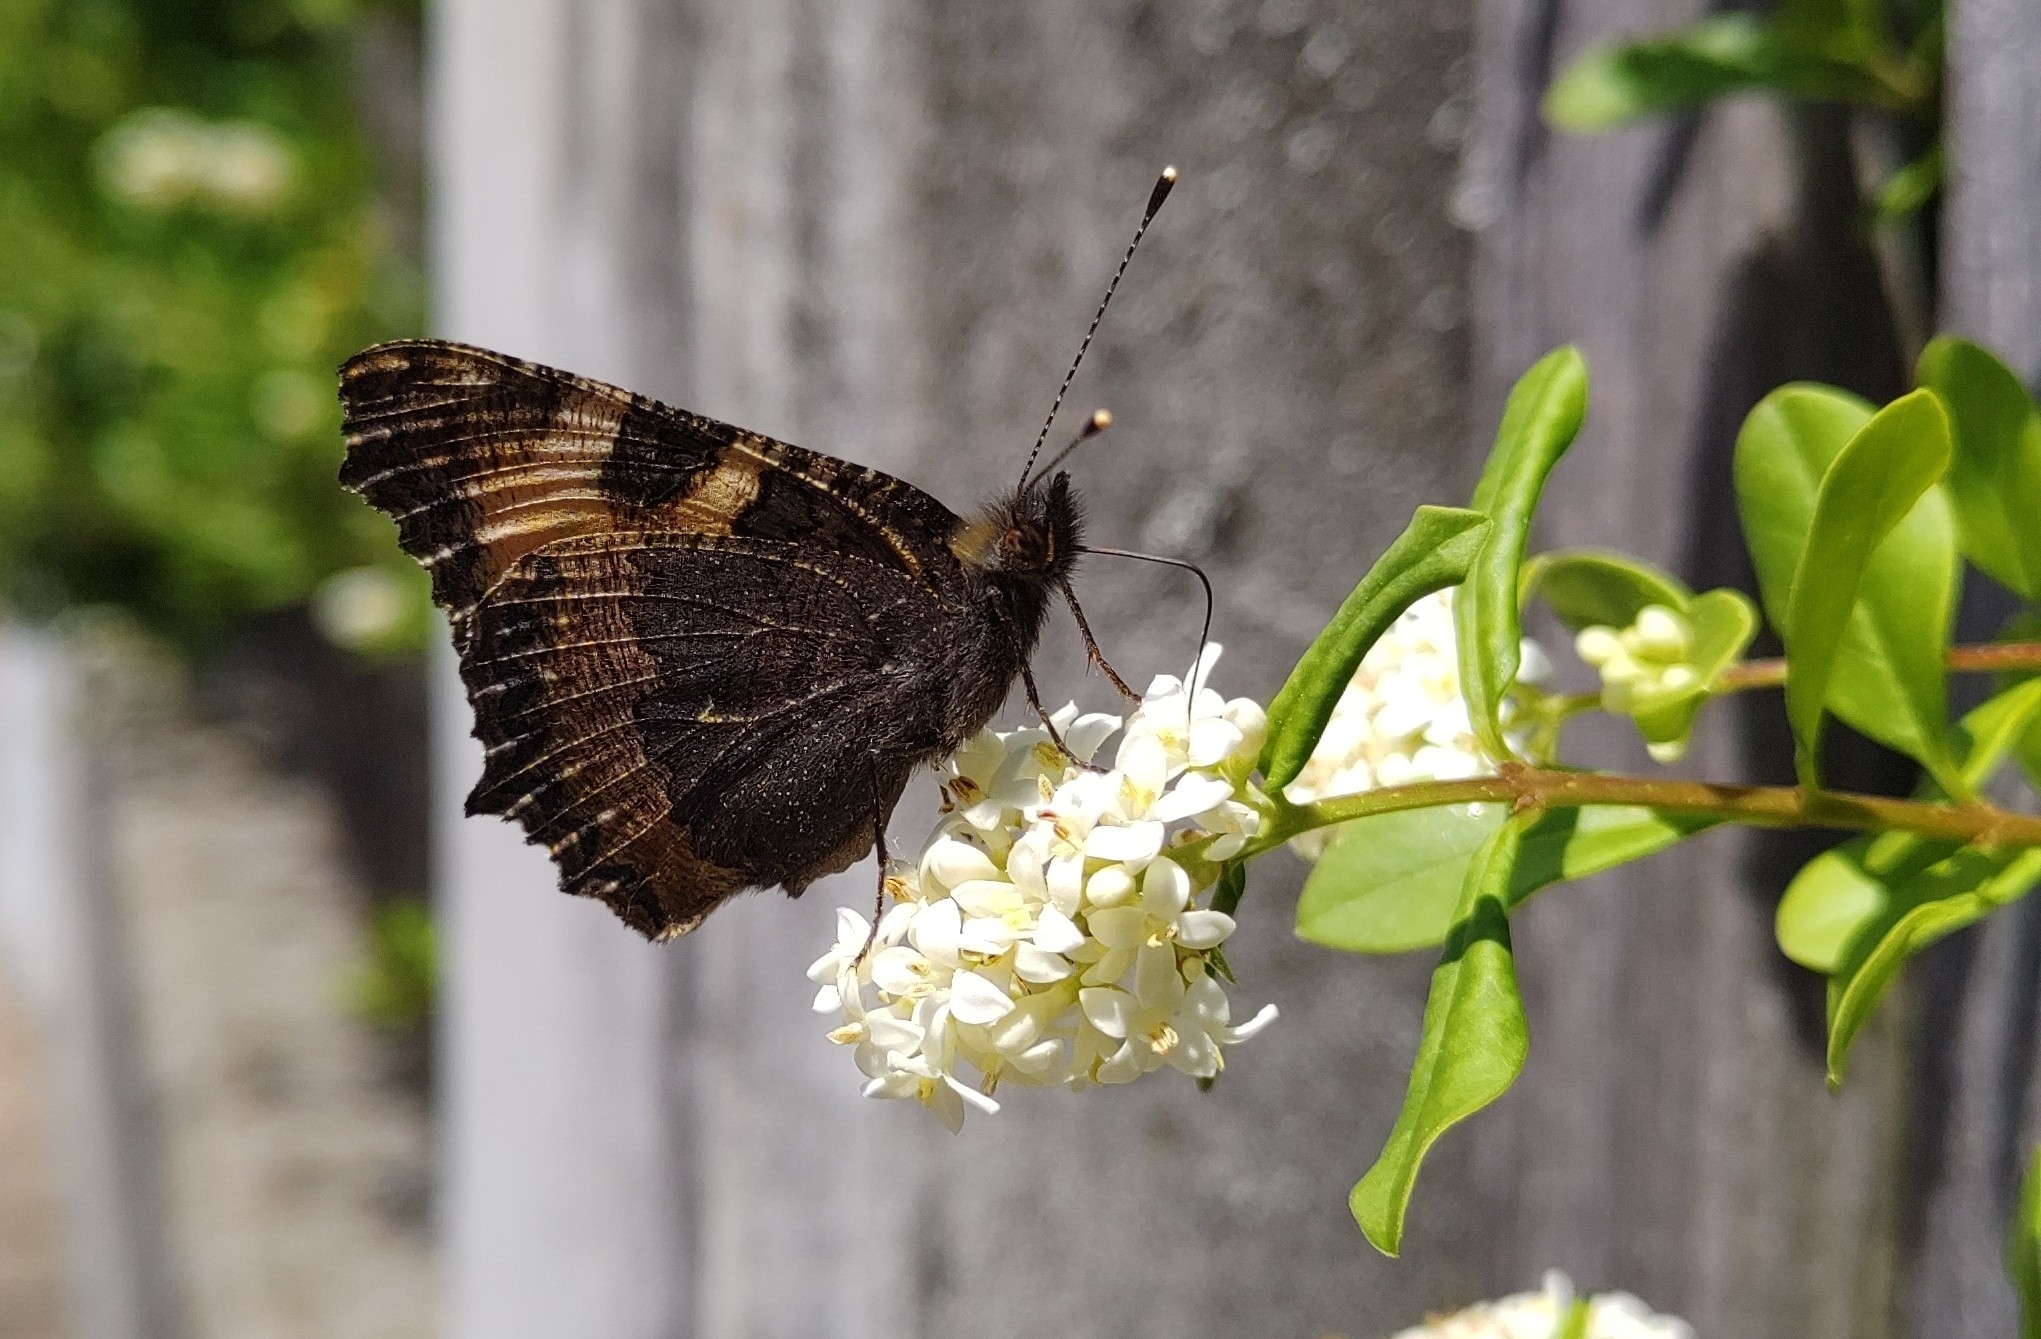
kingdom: Animalia
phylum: Arthropoda
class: Insecta
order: Lepidoptera
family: Nymphalidae
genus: Aglais
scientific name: Aglais urticae
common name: Small tortoiseshell
